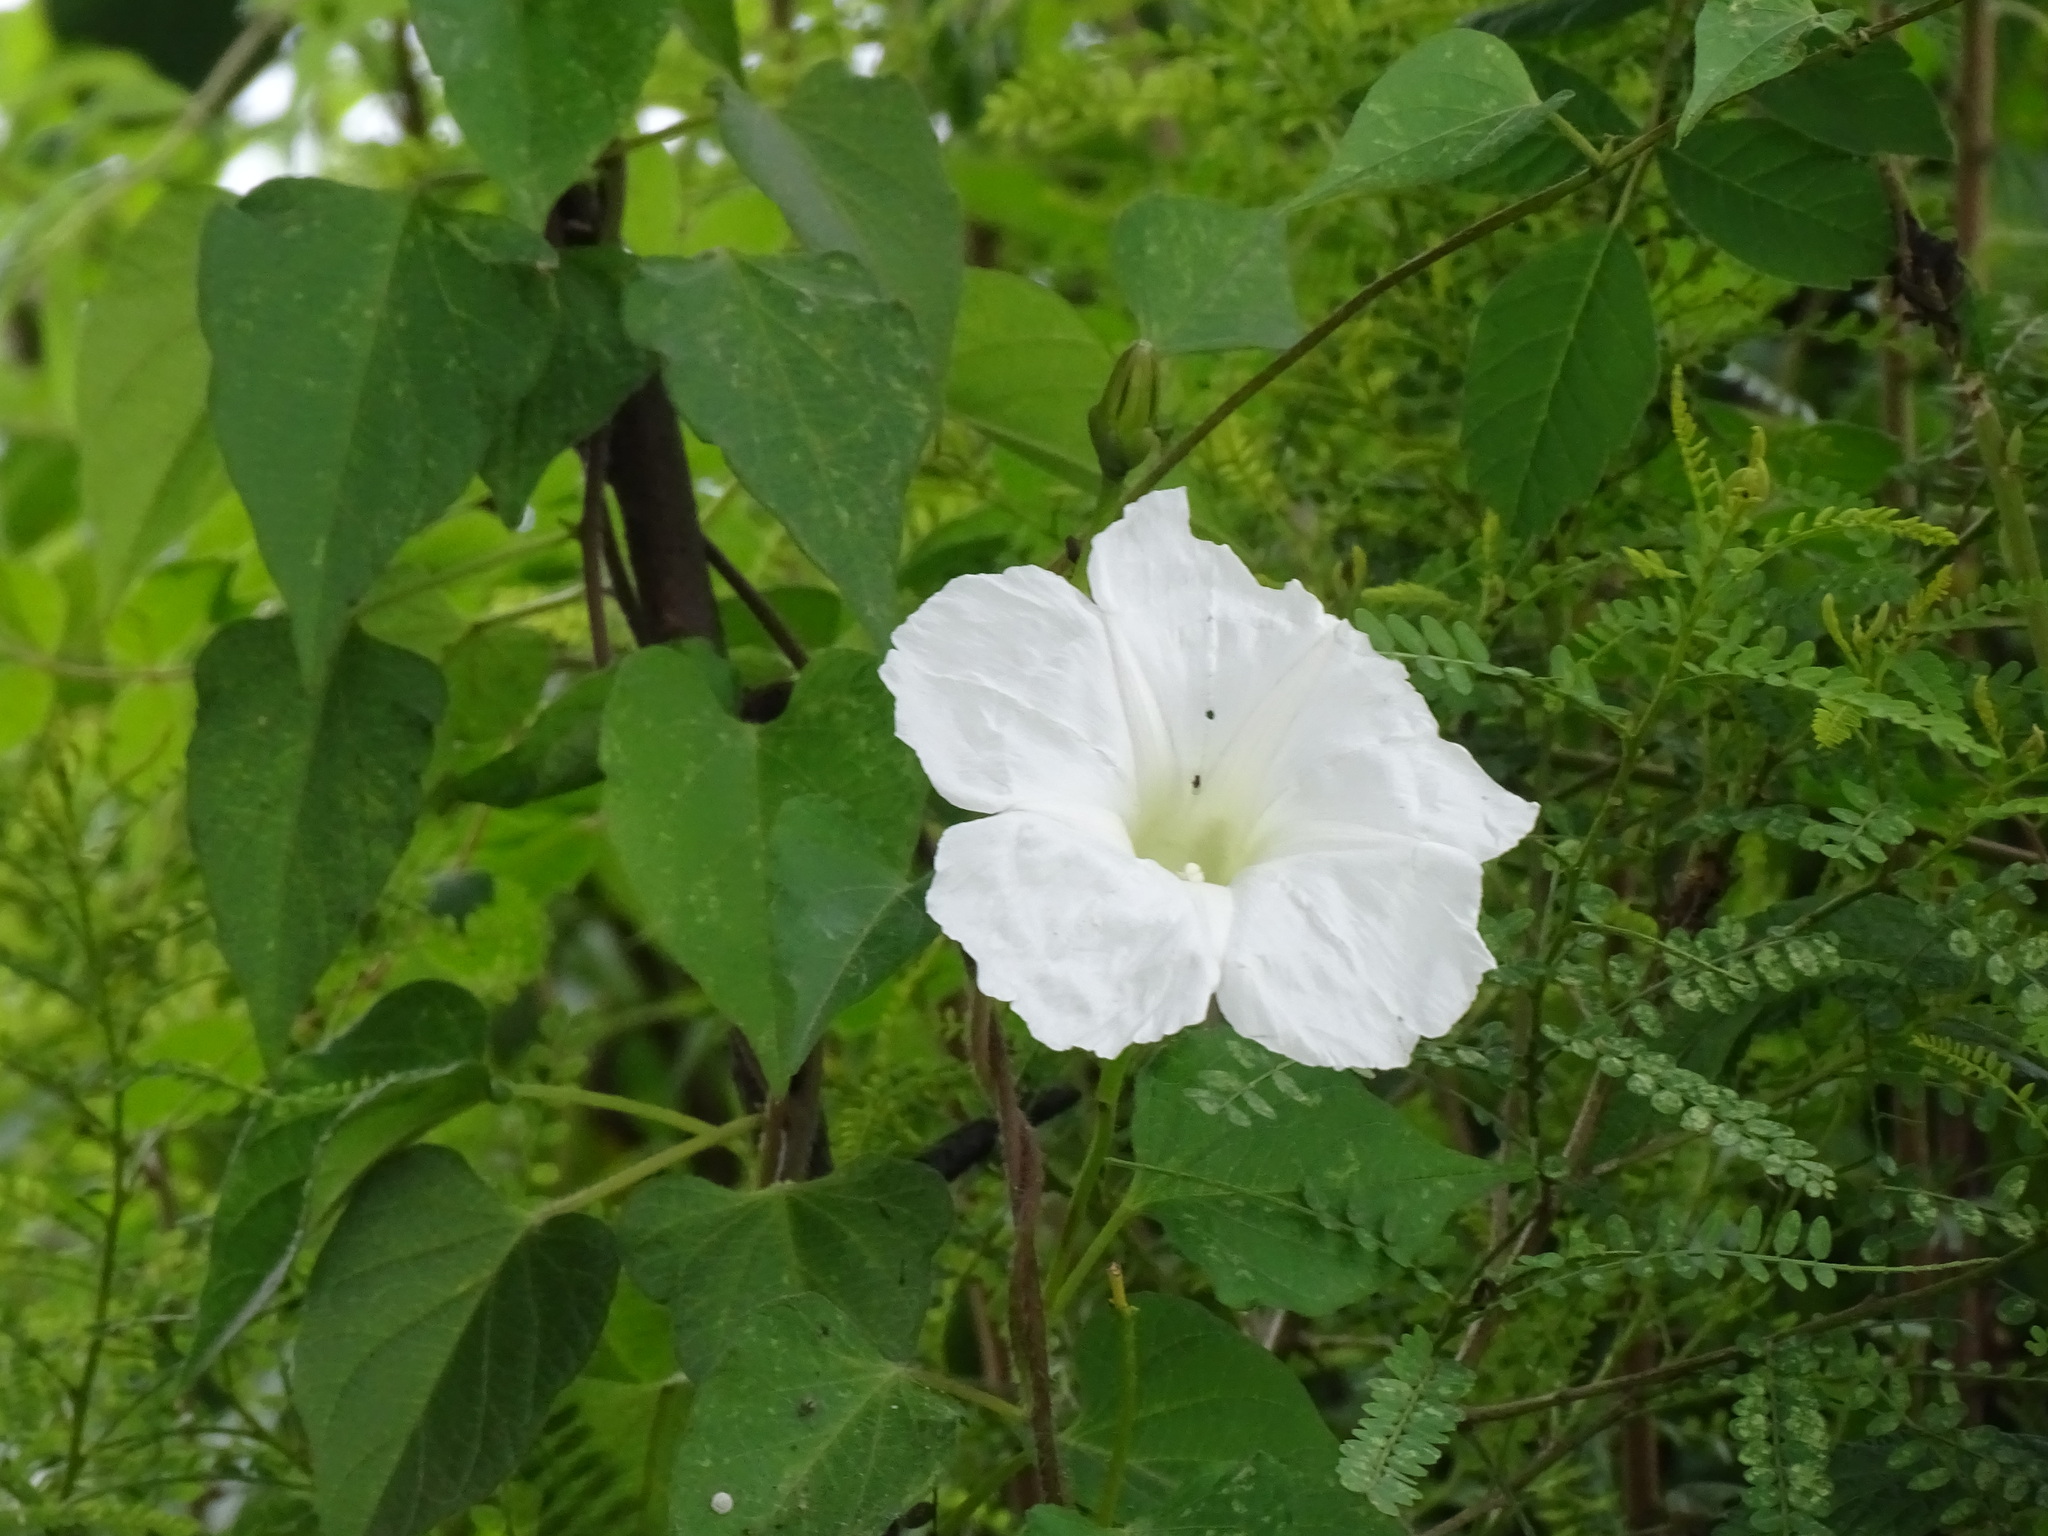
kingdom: Plantae
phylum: Tracheophyta
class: Magnoliopsida
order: Solanales
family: Convolvulaceae
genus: Ipomoea
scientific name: Ipomoea proxima
